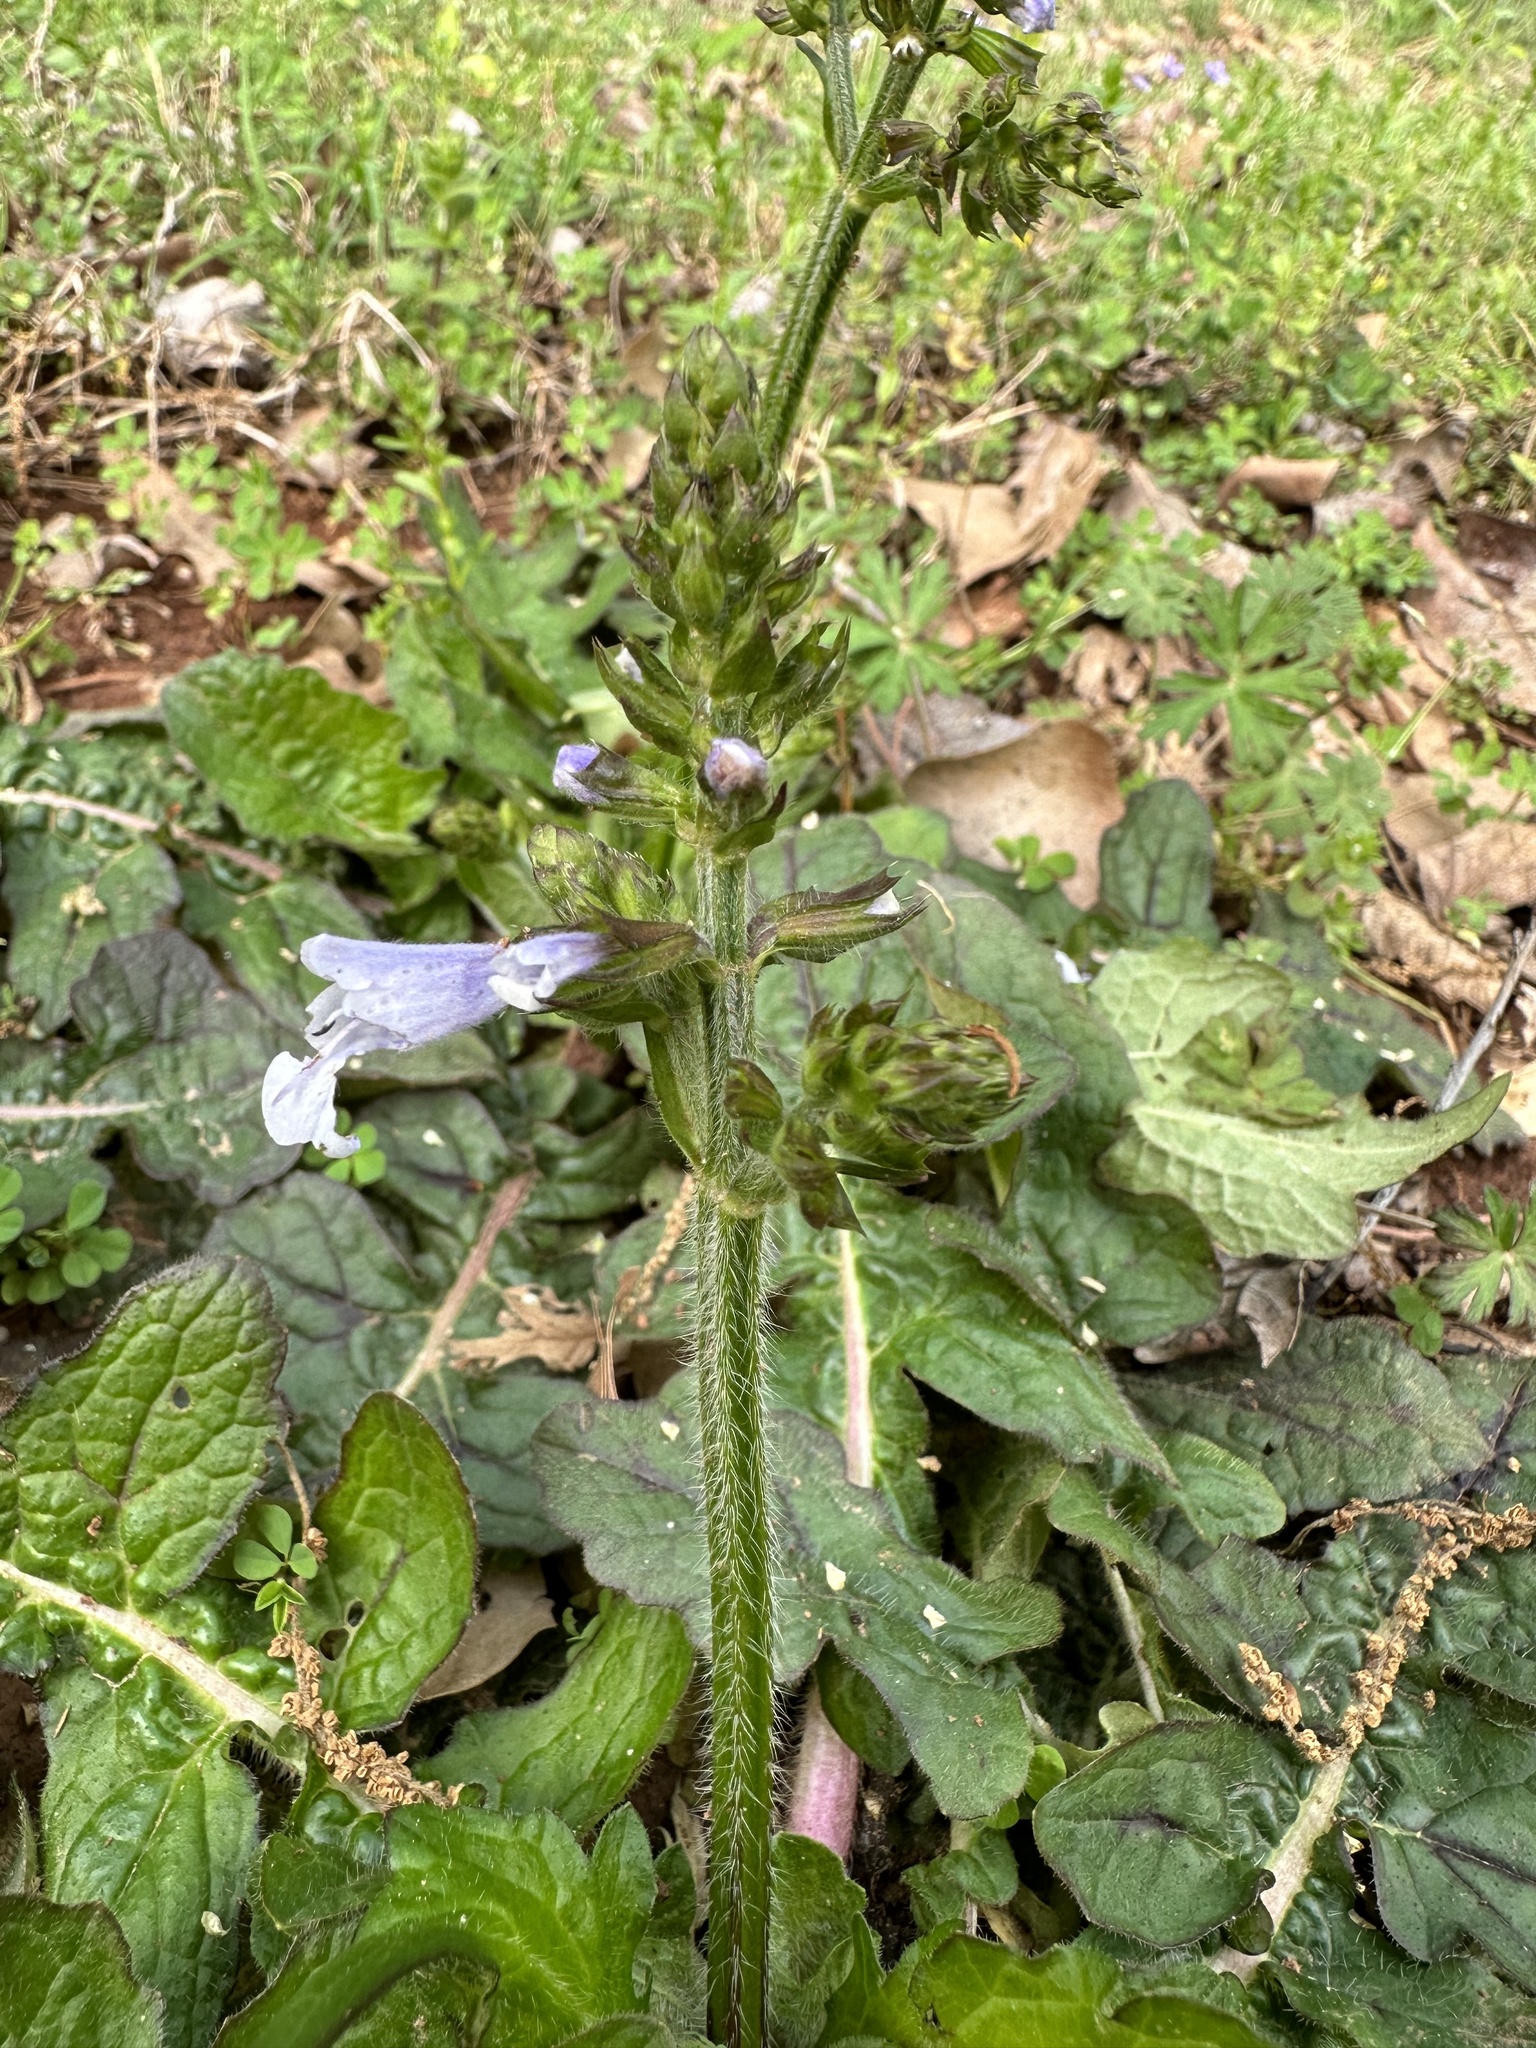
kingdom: Plantae
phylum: Tracheophyta
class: Magnoliopsida
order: Lamiales
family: Lamiaceae
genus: Salvia
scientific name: Salvia lyrata
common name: Cancerweed
